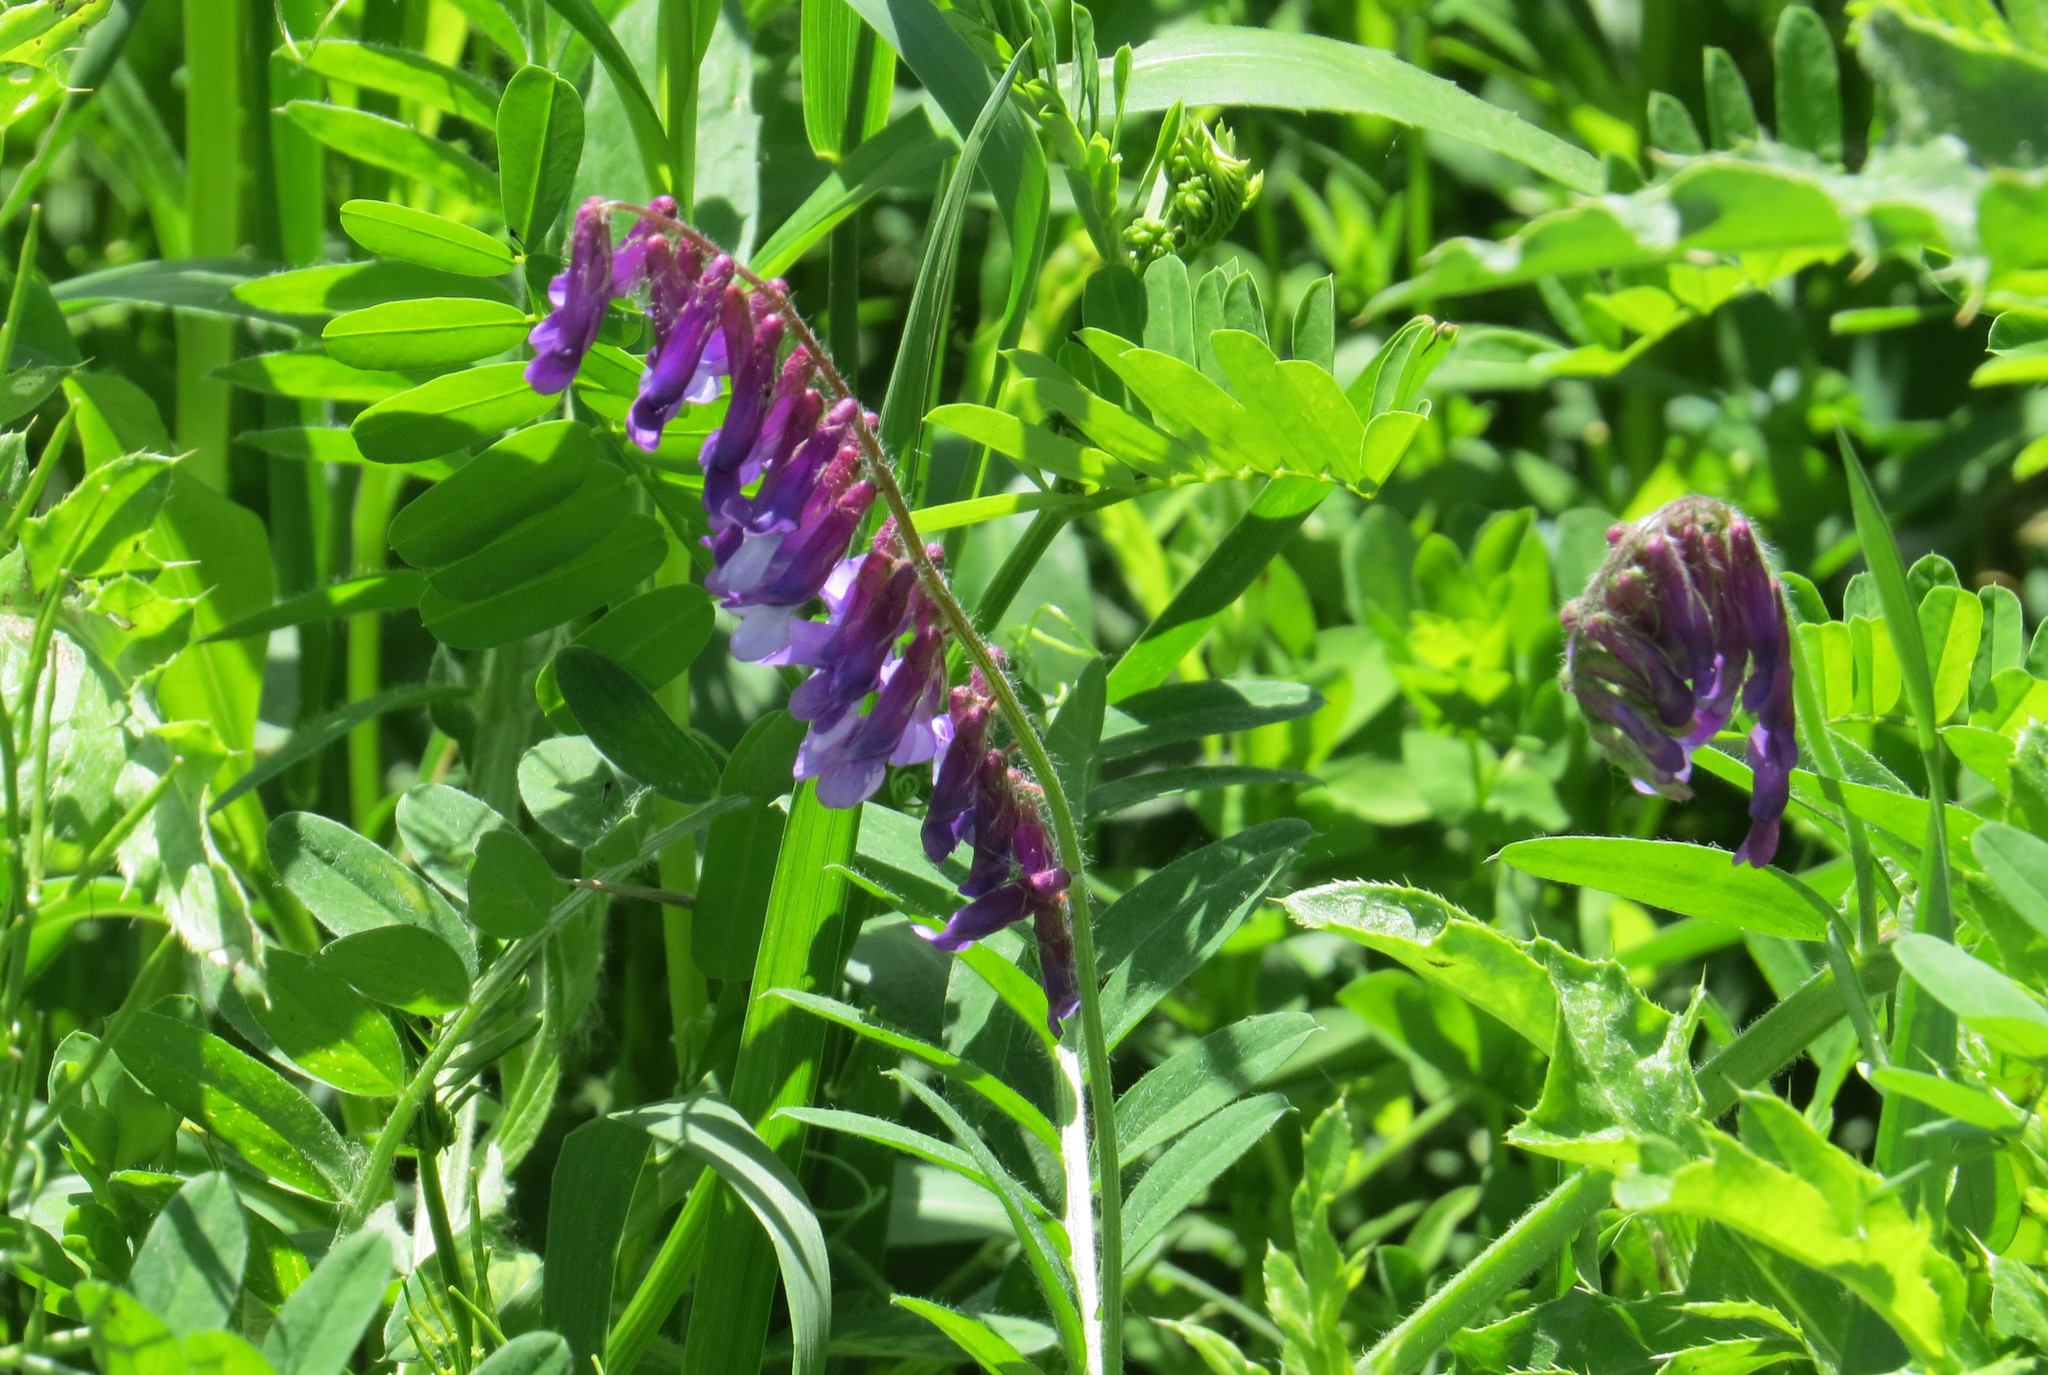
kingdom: Plantae
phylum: Tracheophyta
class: Magnoliopsida
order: Fabales
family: Fabaceae
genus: Vicia
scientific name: Vicia villosa
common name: Fodder vetch
